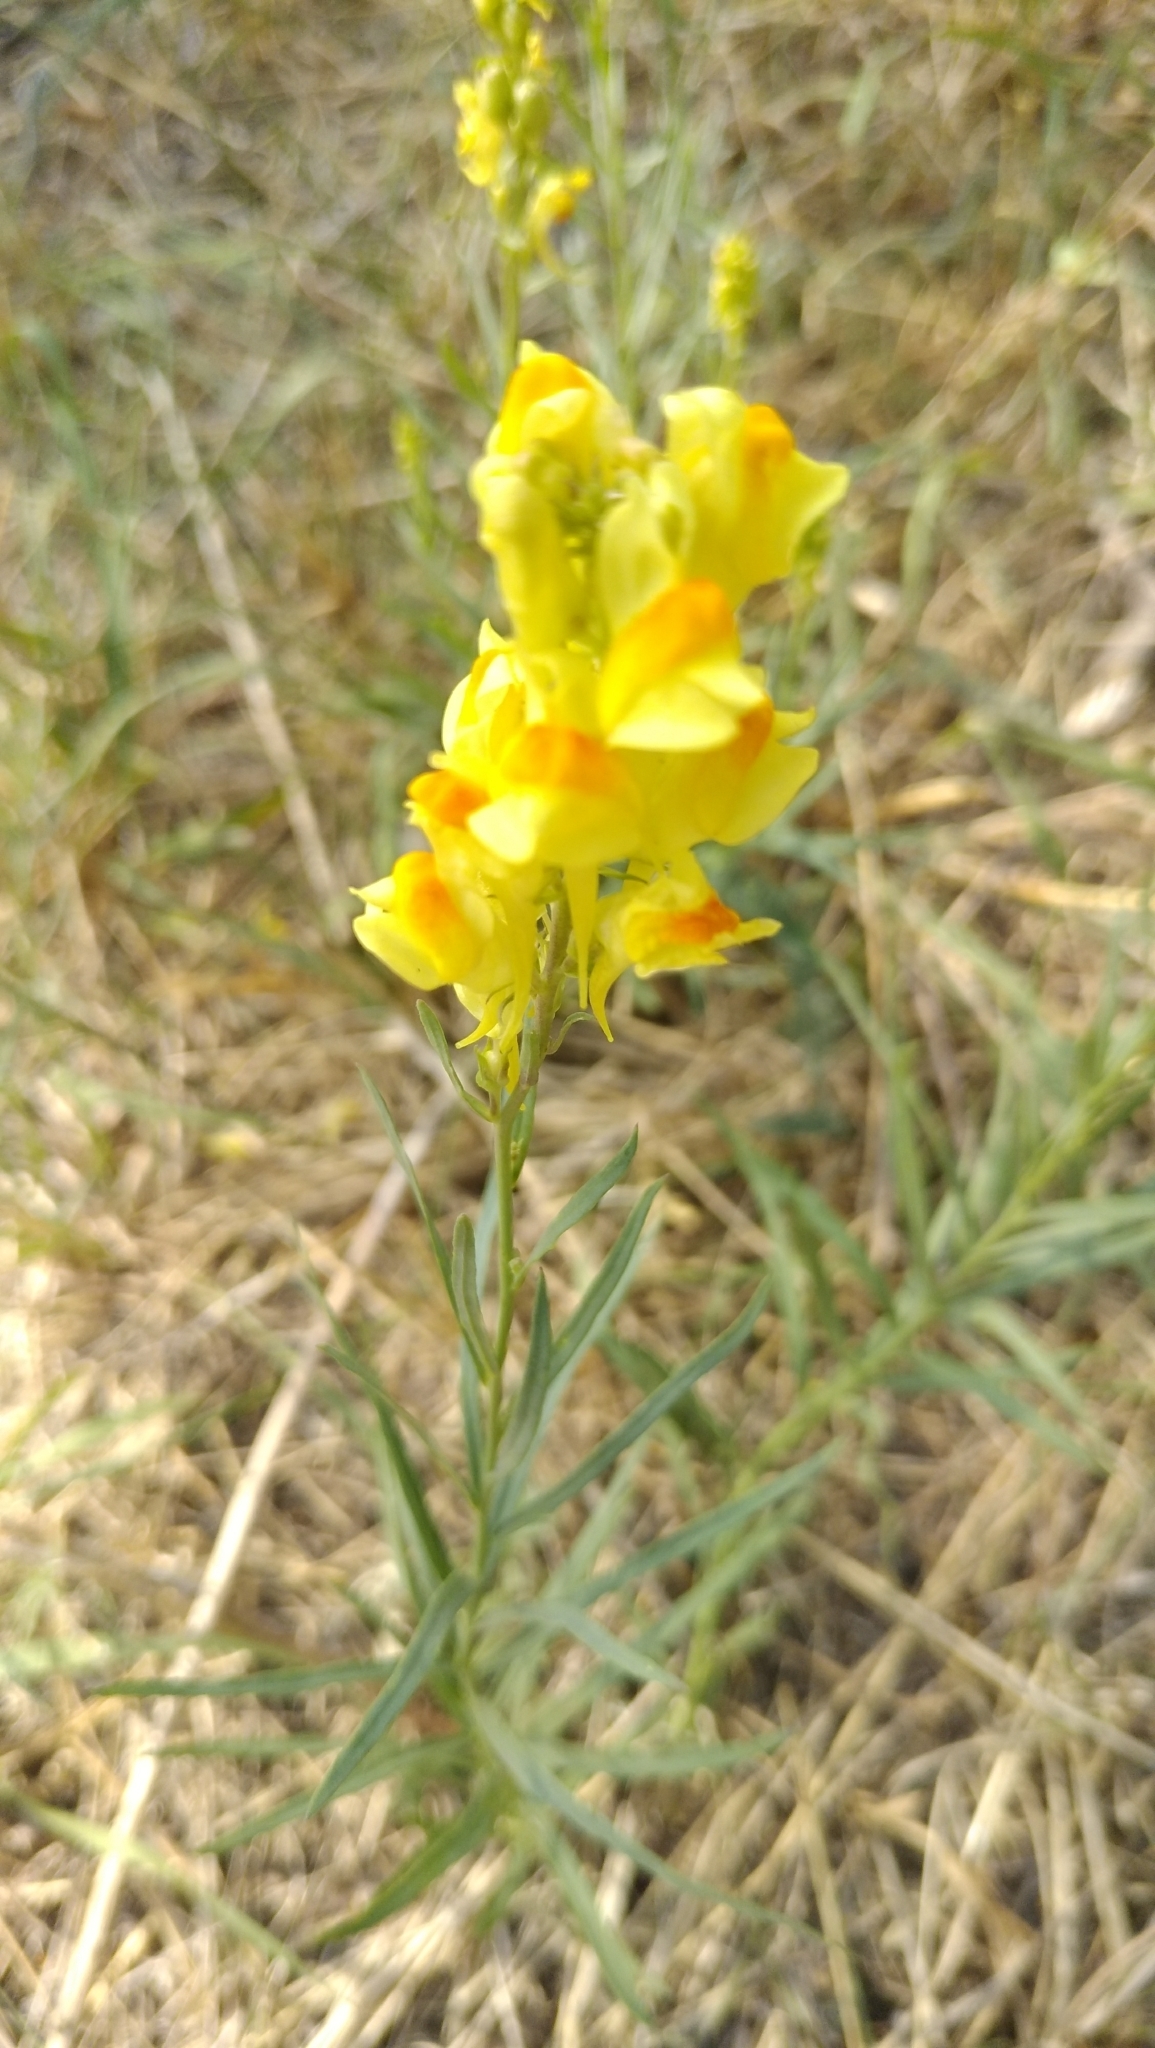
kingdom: Plantae
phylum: Tracheophyta
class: Magnoliopsida
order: Lamiales
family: Plantaginaceae
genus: Linaria
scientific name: Linaria vulgaris
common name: Butter and eggs
